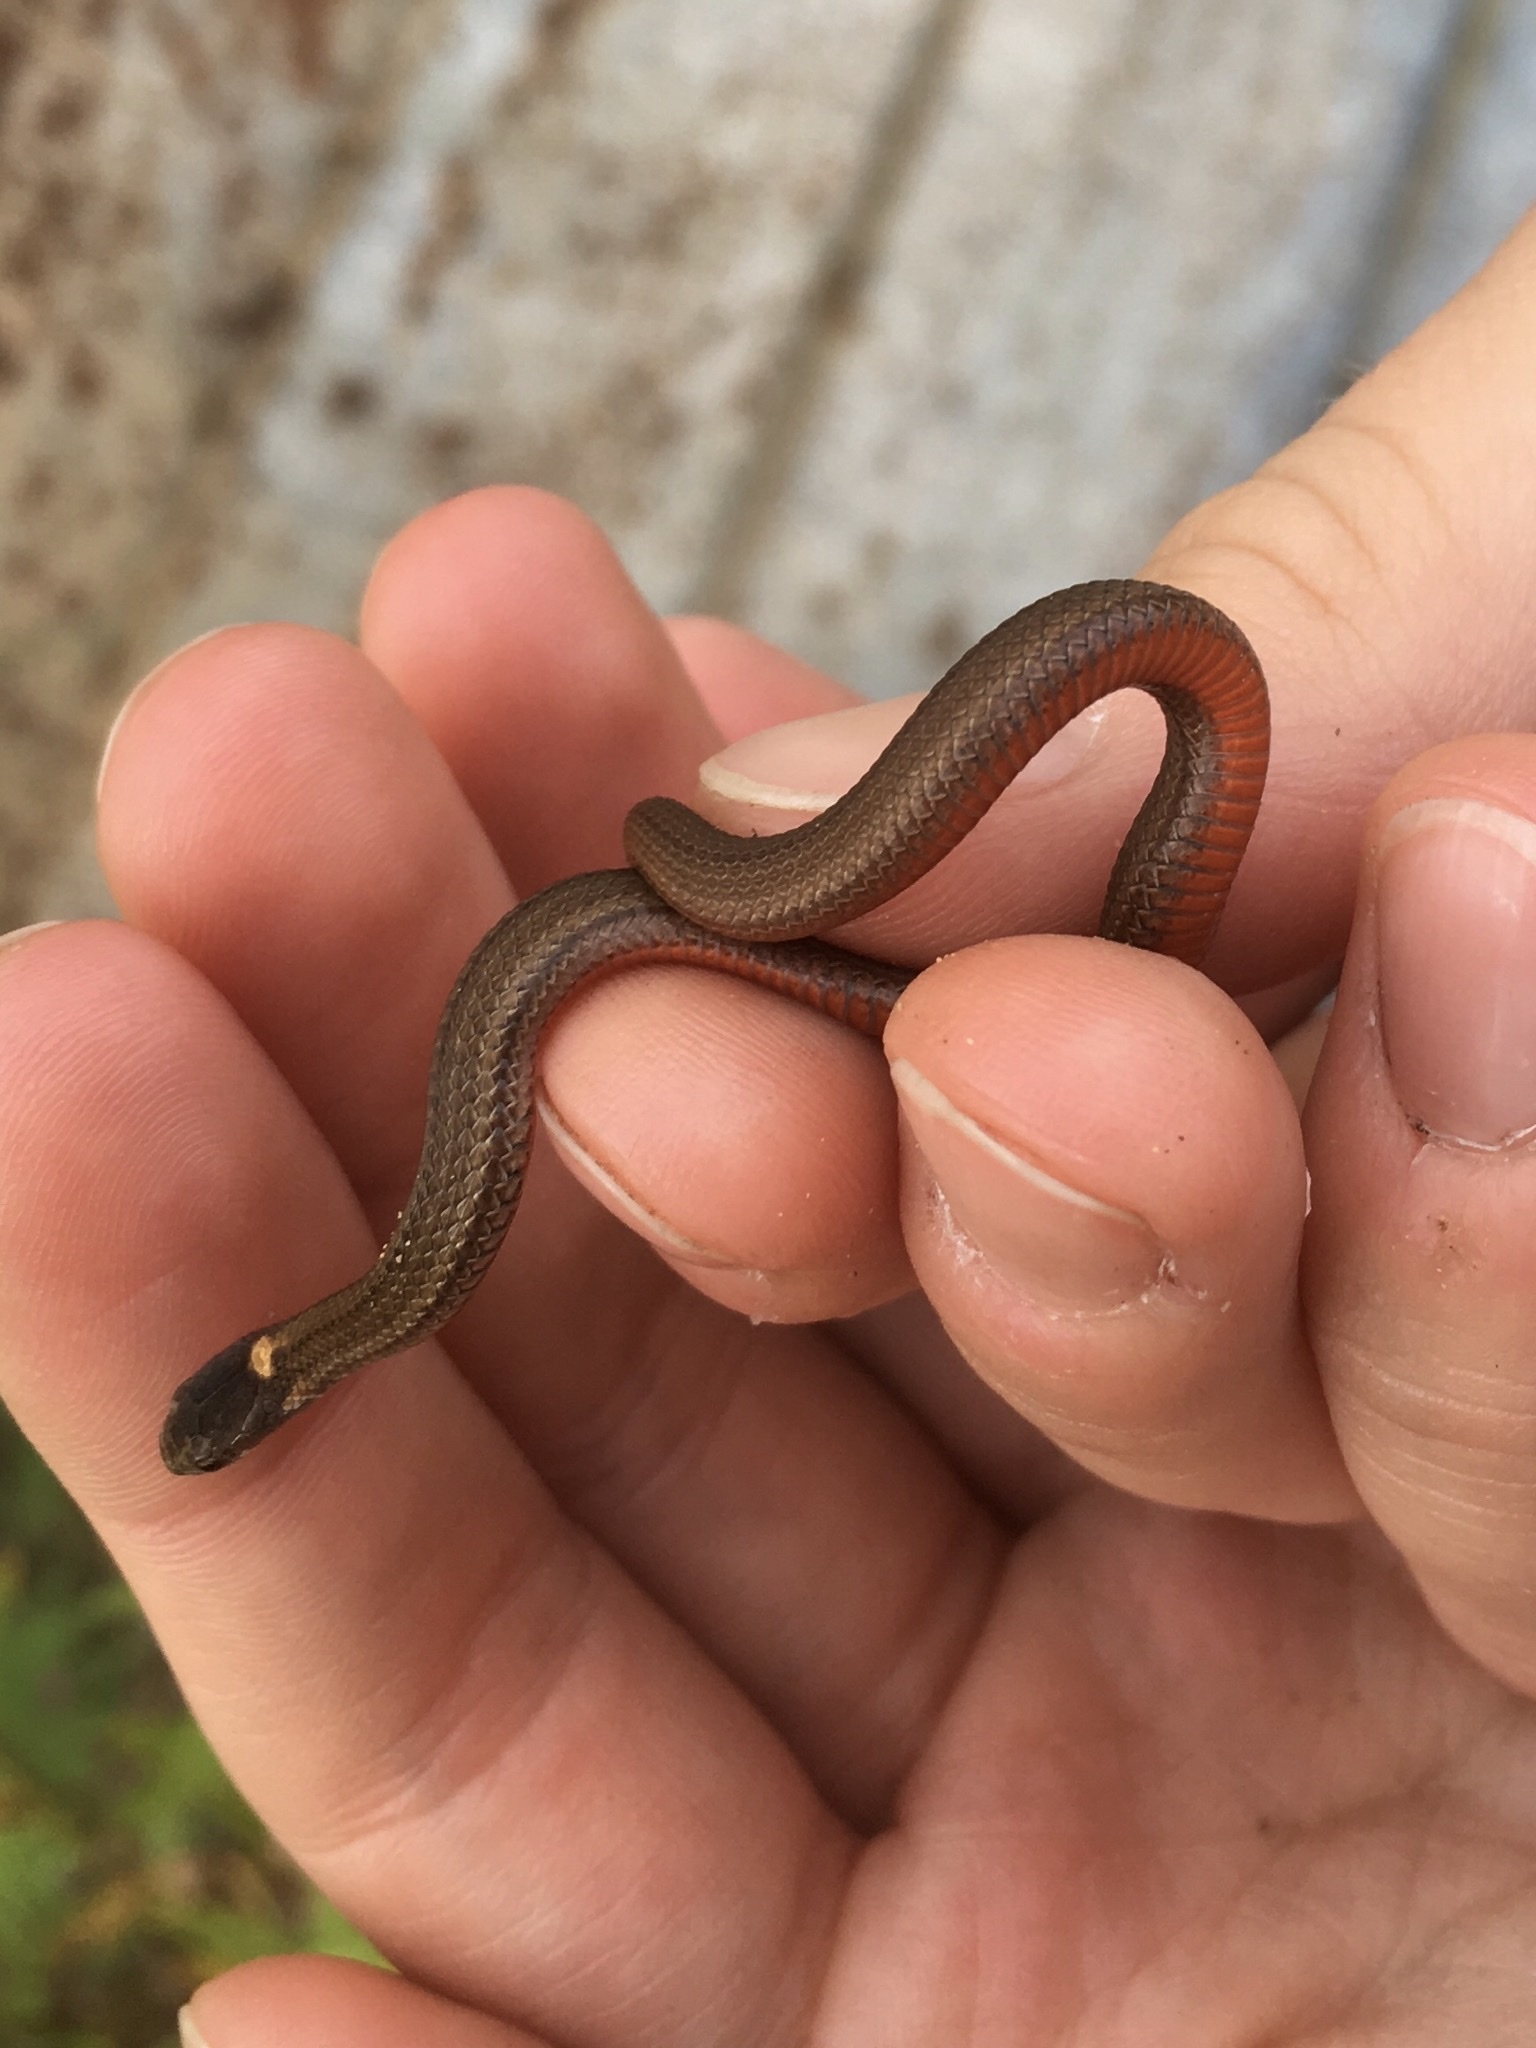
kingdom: Animalia
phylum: Chordata
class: Squamata
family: Colubridae
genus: Storeria
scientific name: Storeria occipitomaculata
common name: Redbelly snake
